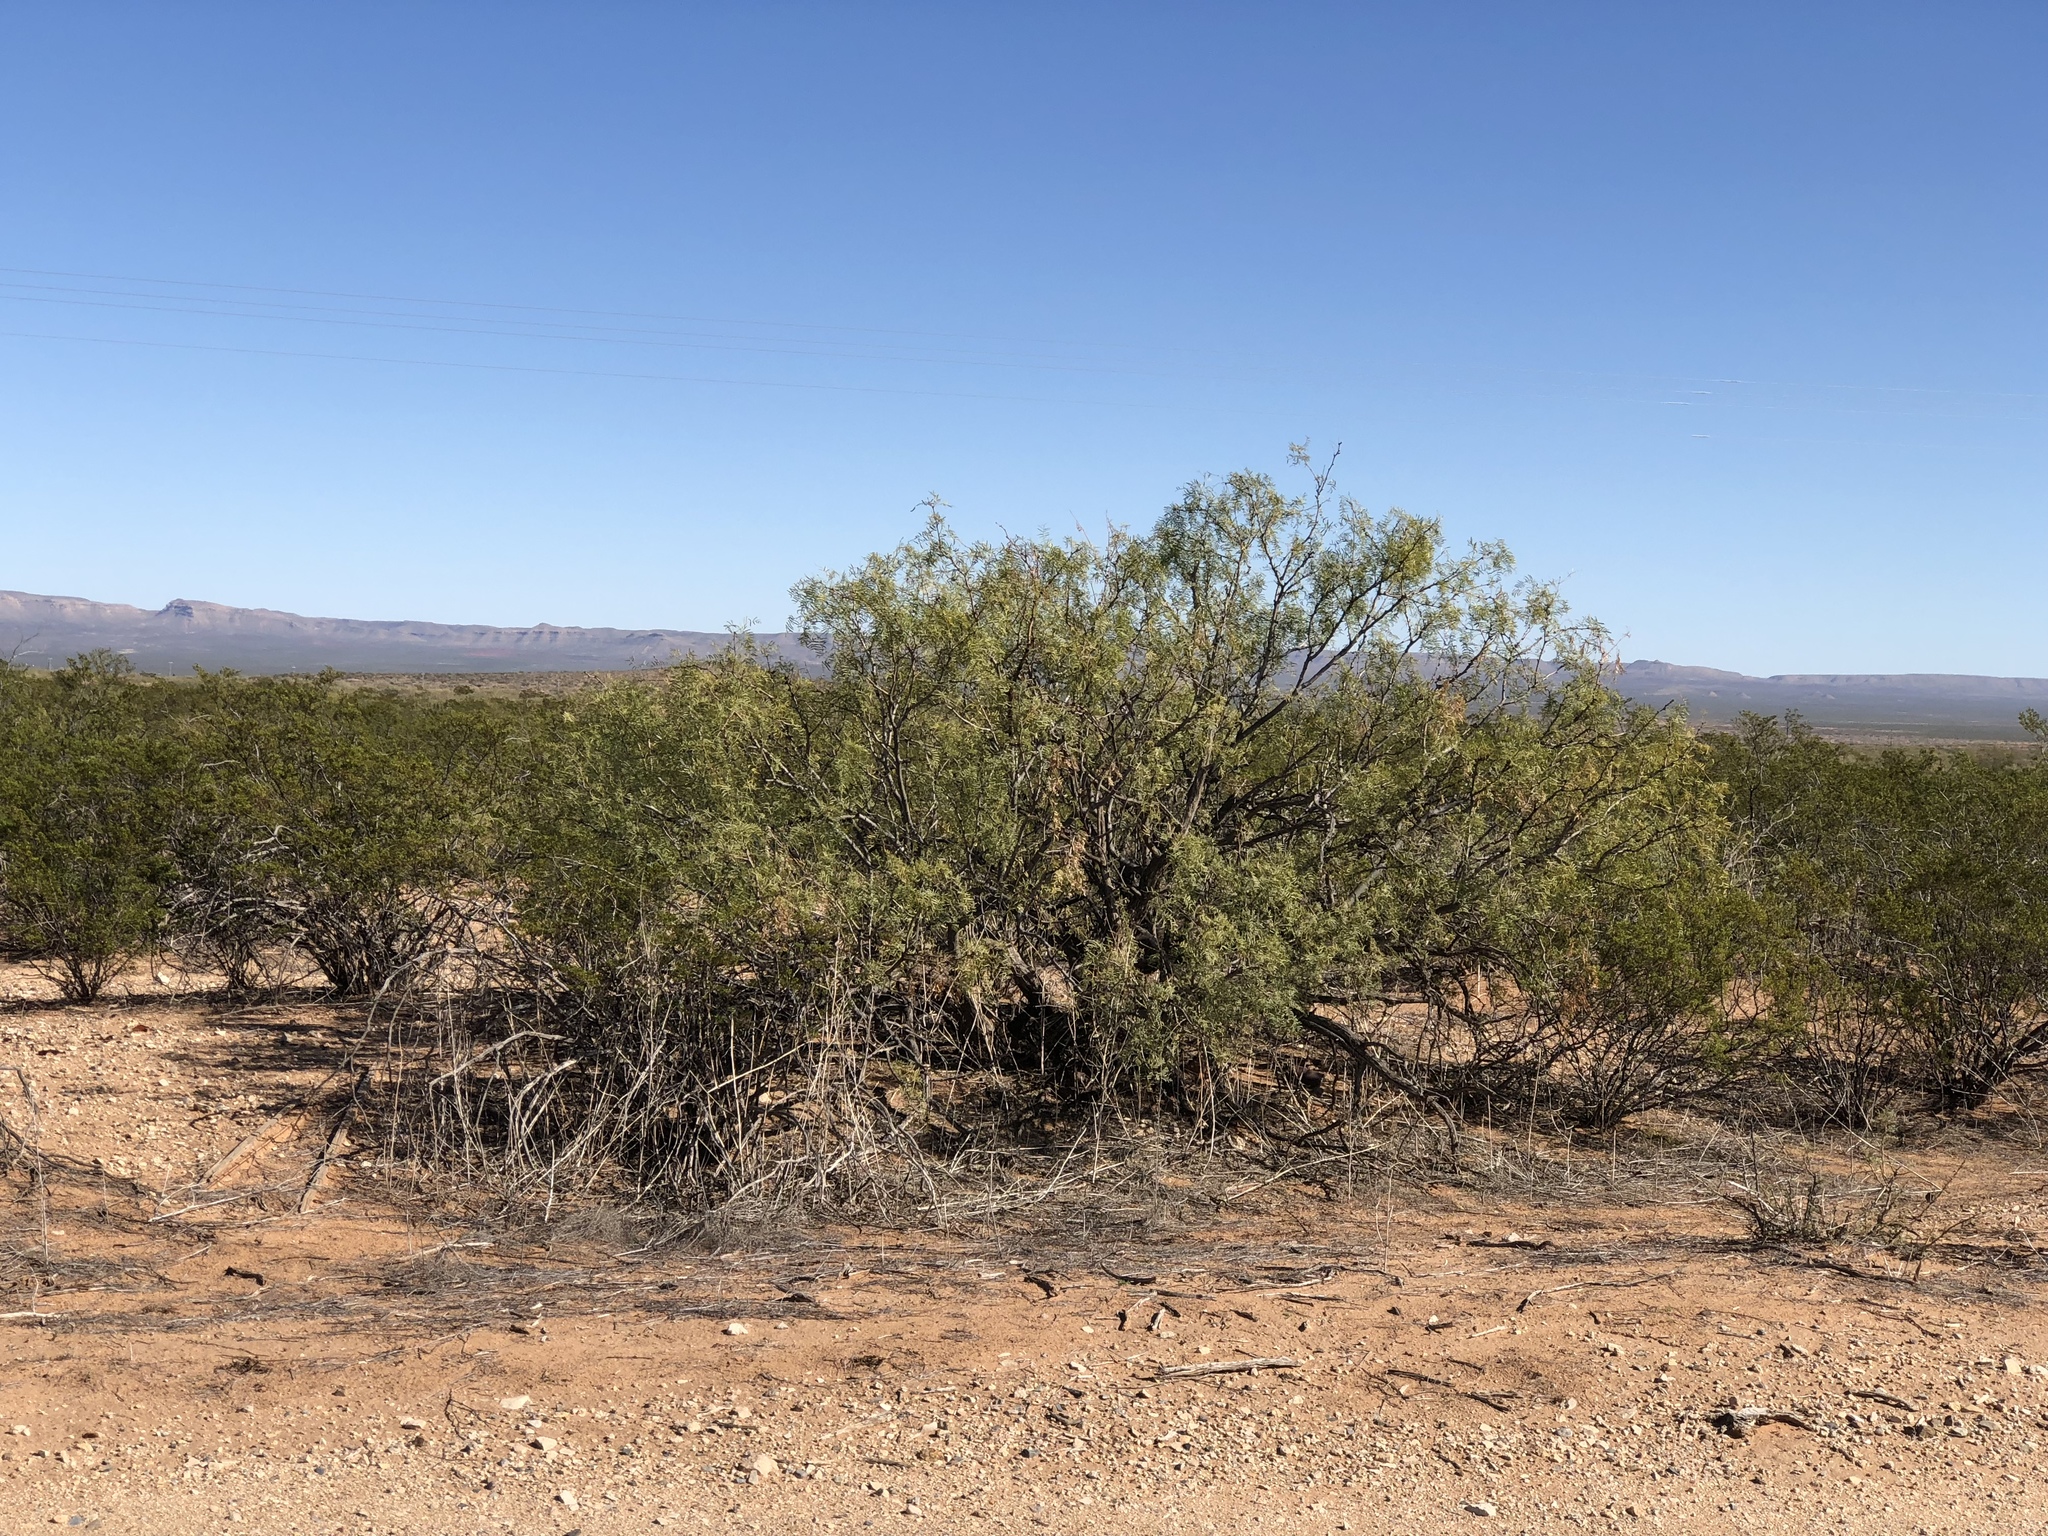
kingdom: Plantae
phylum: Tracheophyta
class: Magnoliopsida
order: Fabales
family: Fabaceae
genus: Prosopis
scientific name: Prosopis glandulosa
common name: Honey mesquite
